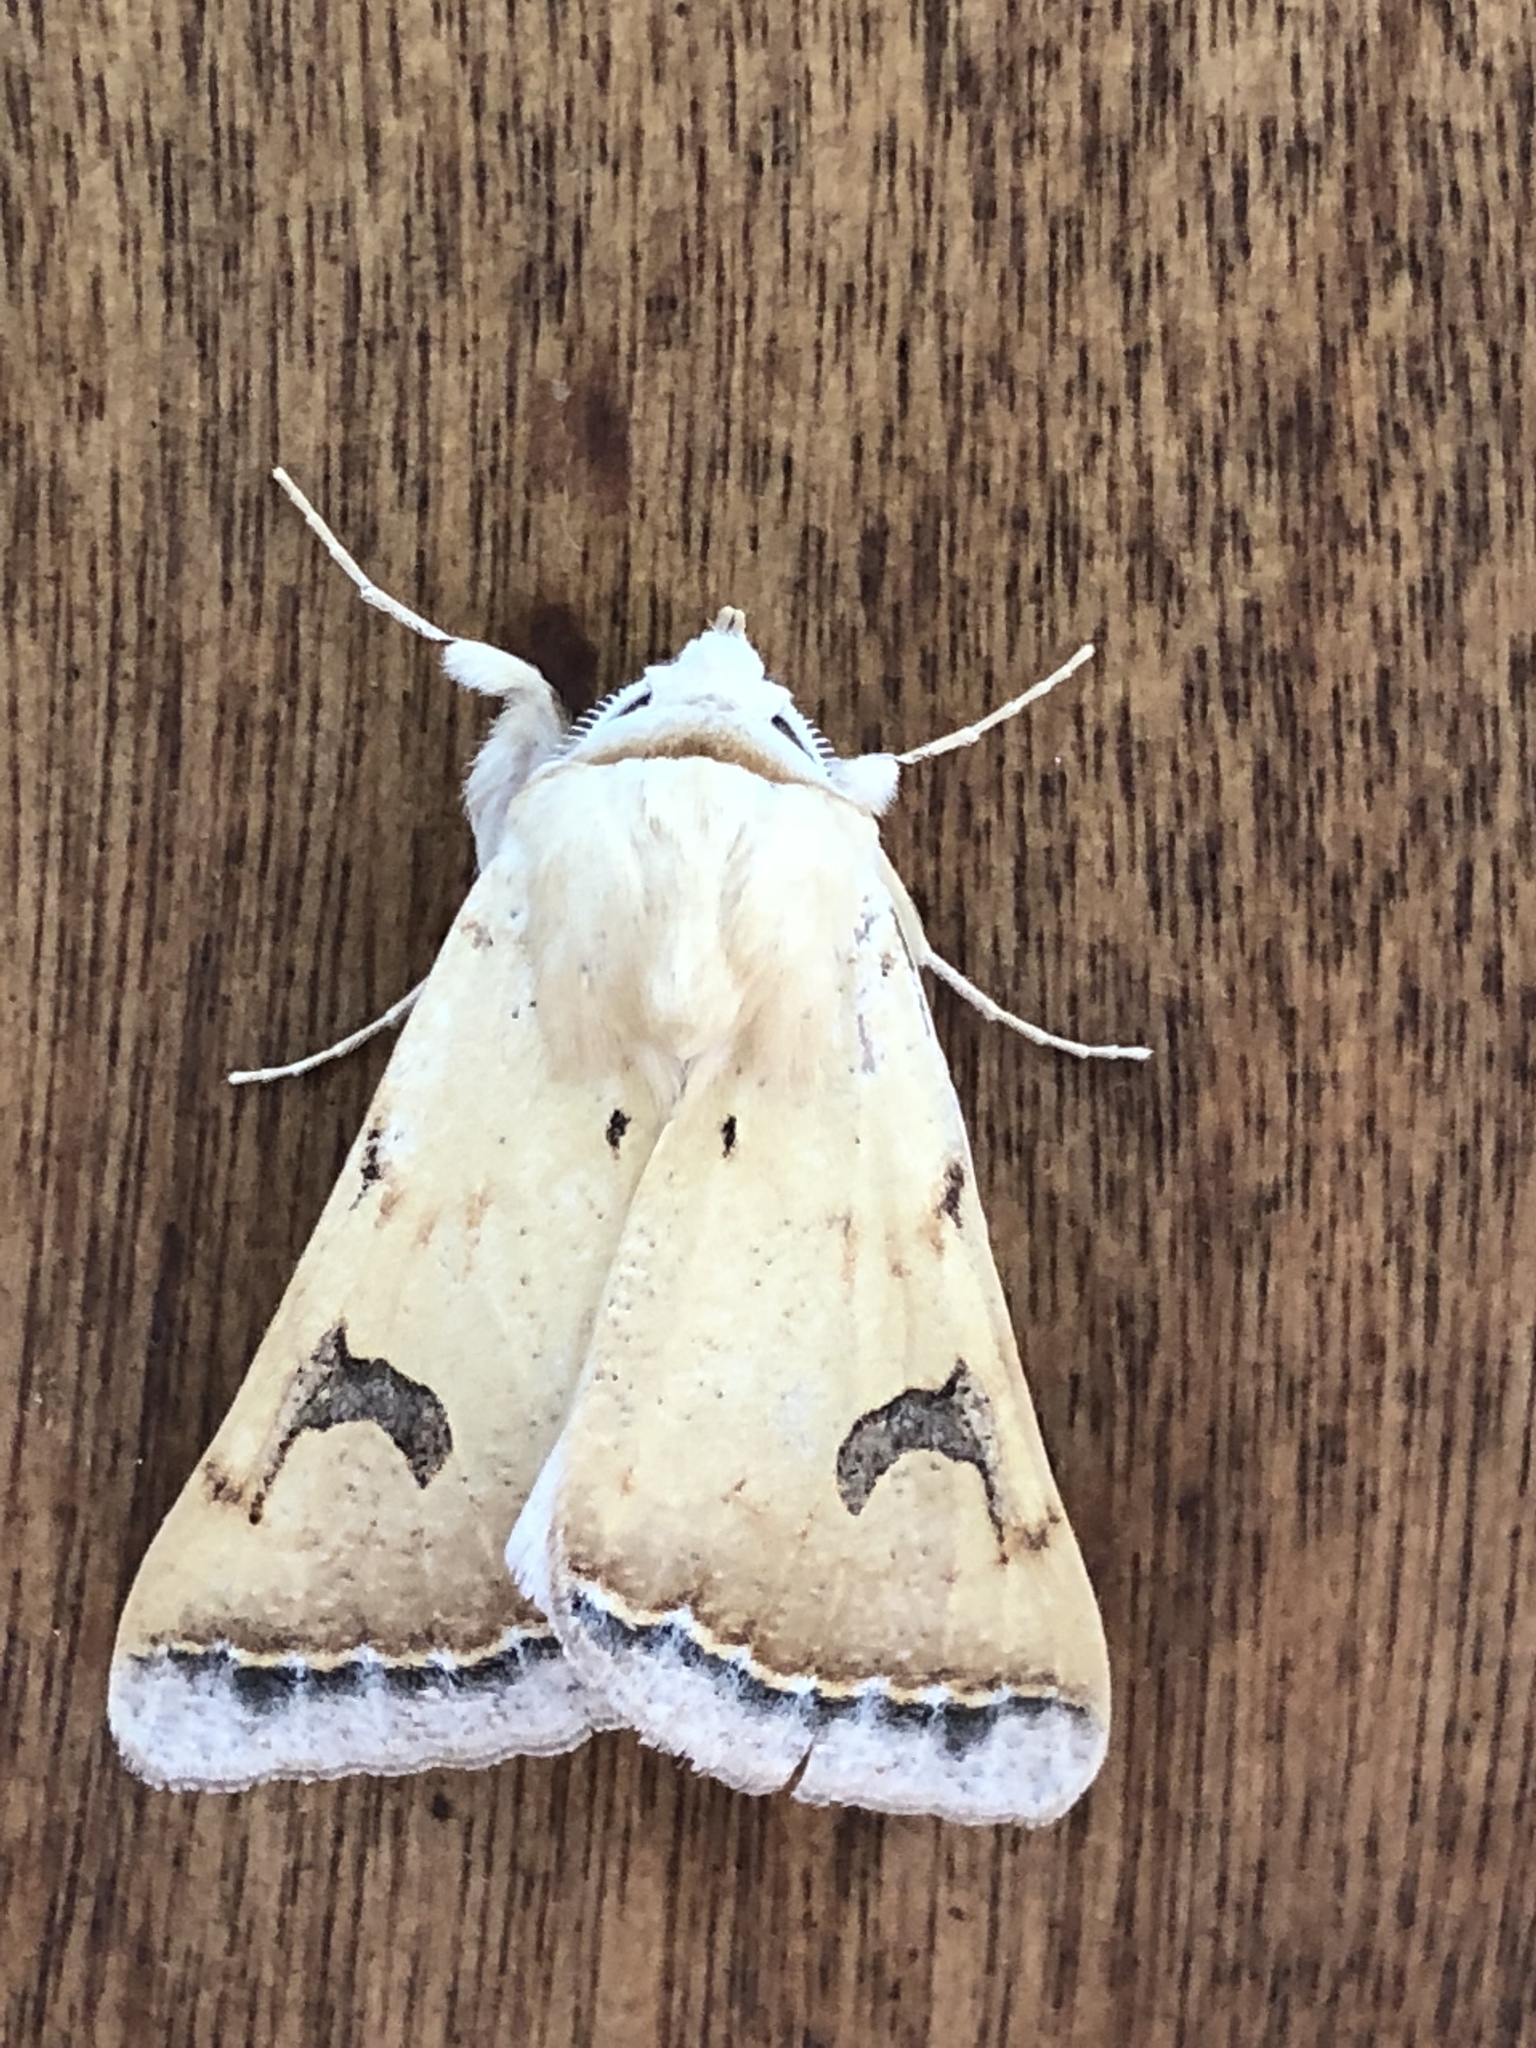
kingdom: Animalia
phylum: Arthropoda
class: Insecta
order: Lepidoptera
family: Erebidae
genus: Ctenusa
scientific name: Ctenusa varians
